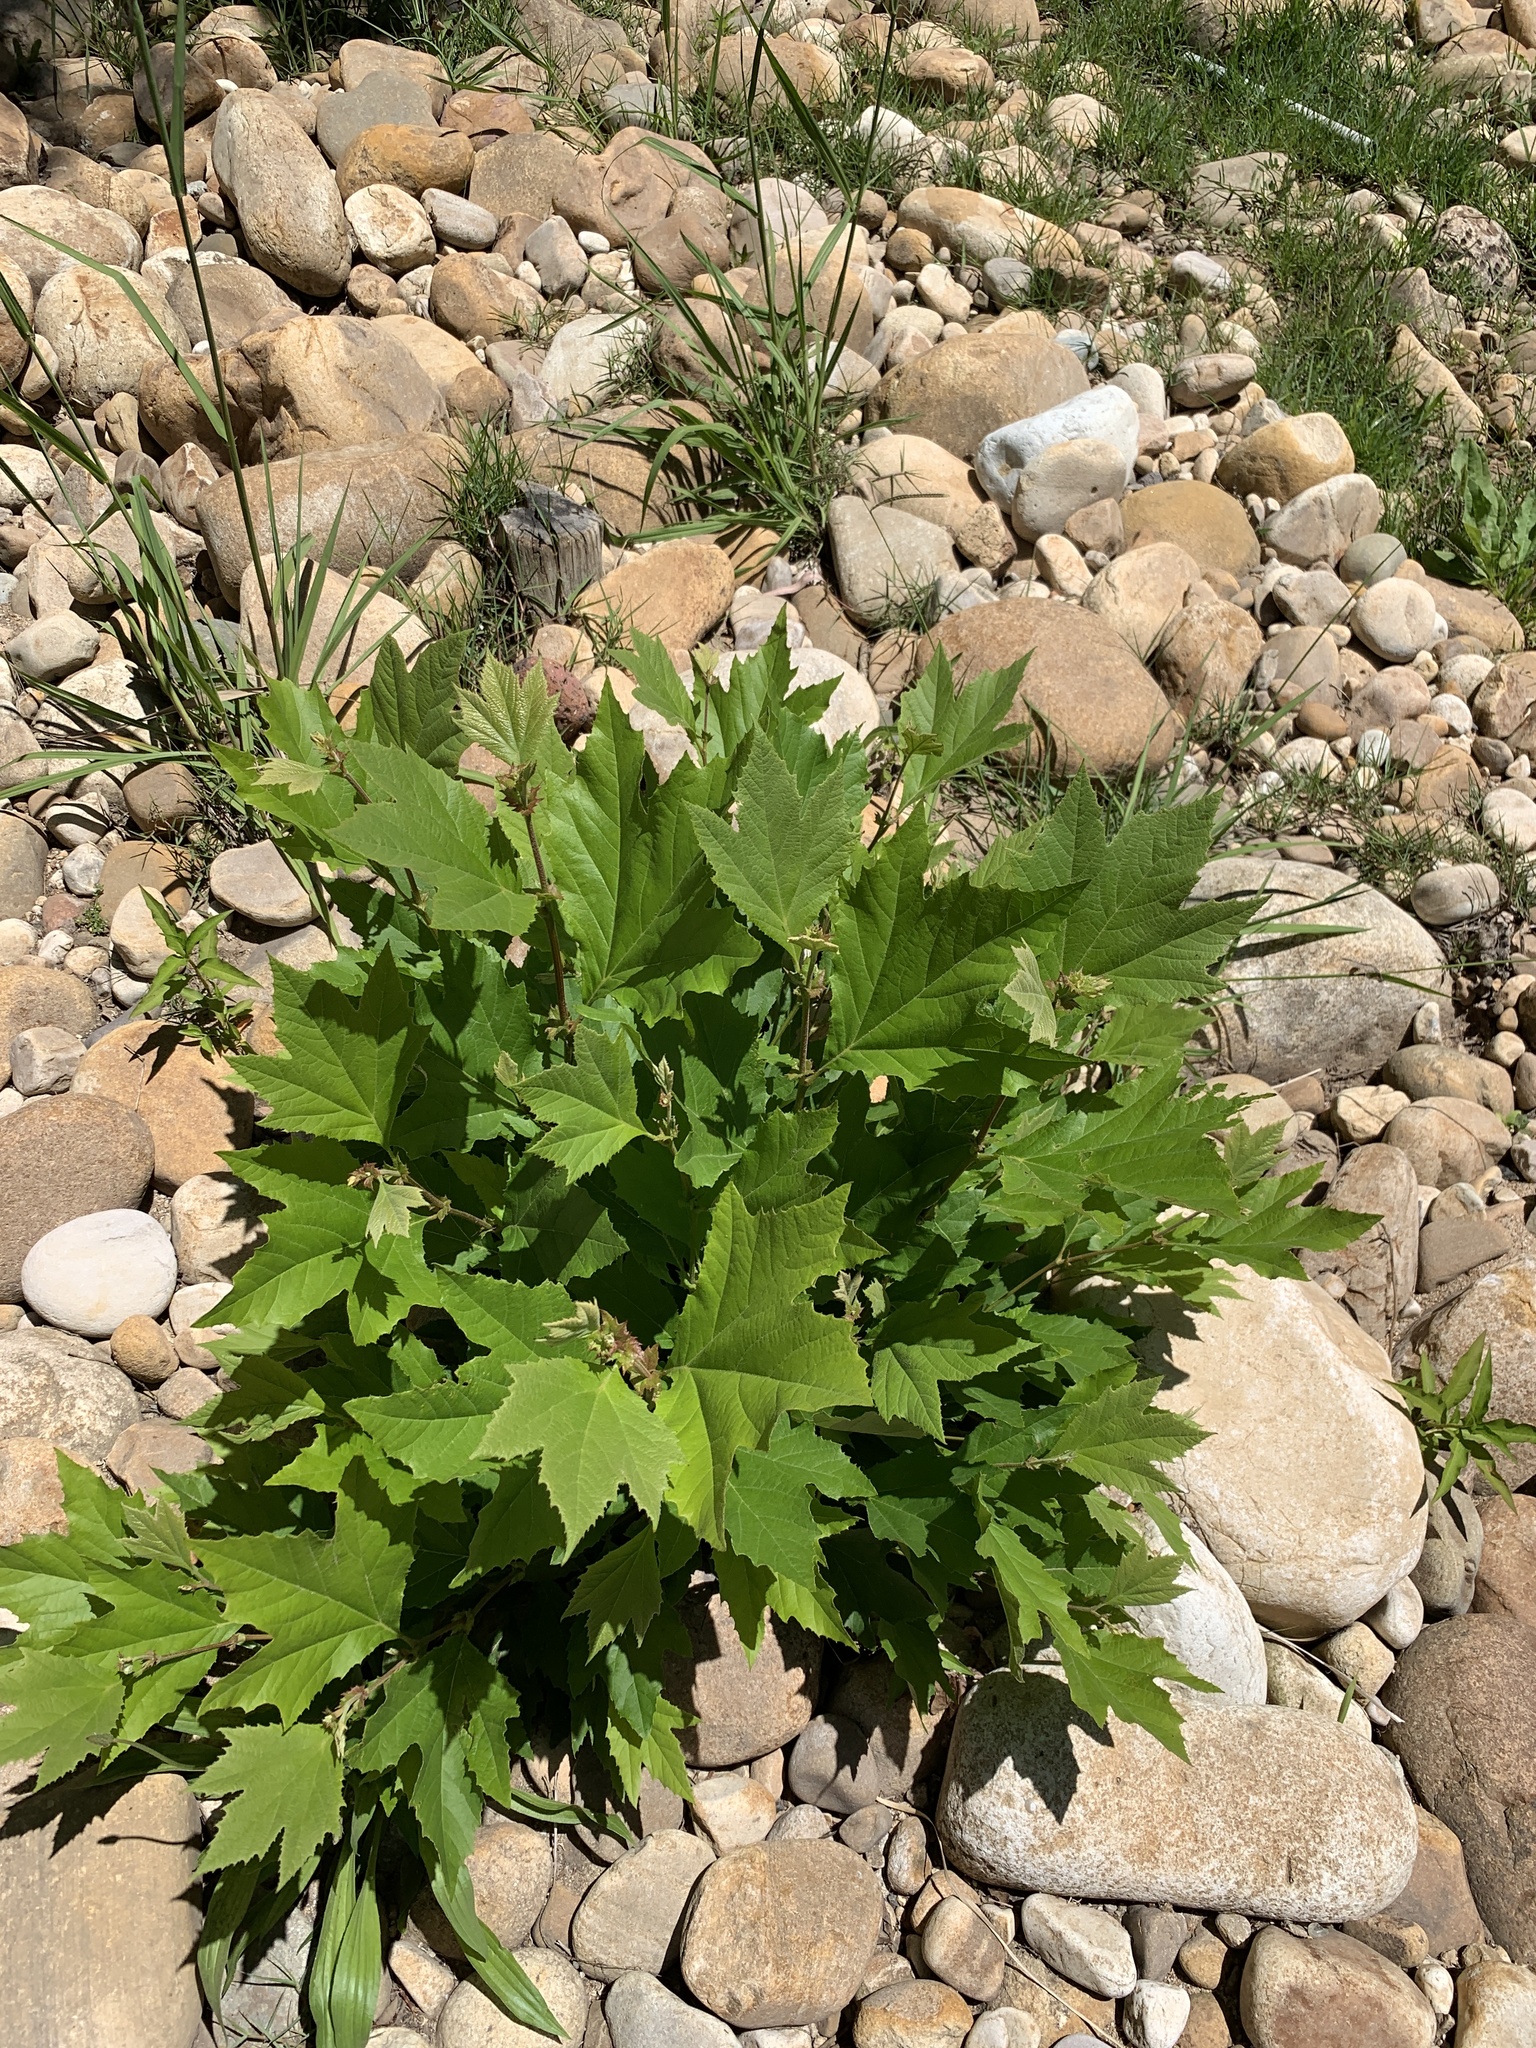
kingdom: Plantae
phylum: Tracheophyta
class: Magnoliopsida
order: Proteales
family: Platanaceae
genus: Platanus
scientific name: Platanus hispanica
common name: London plane
